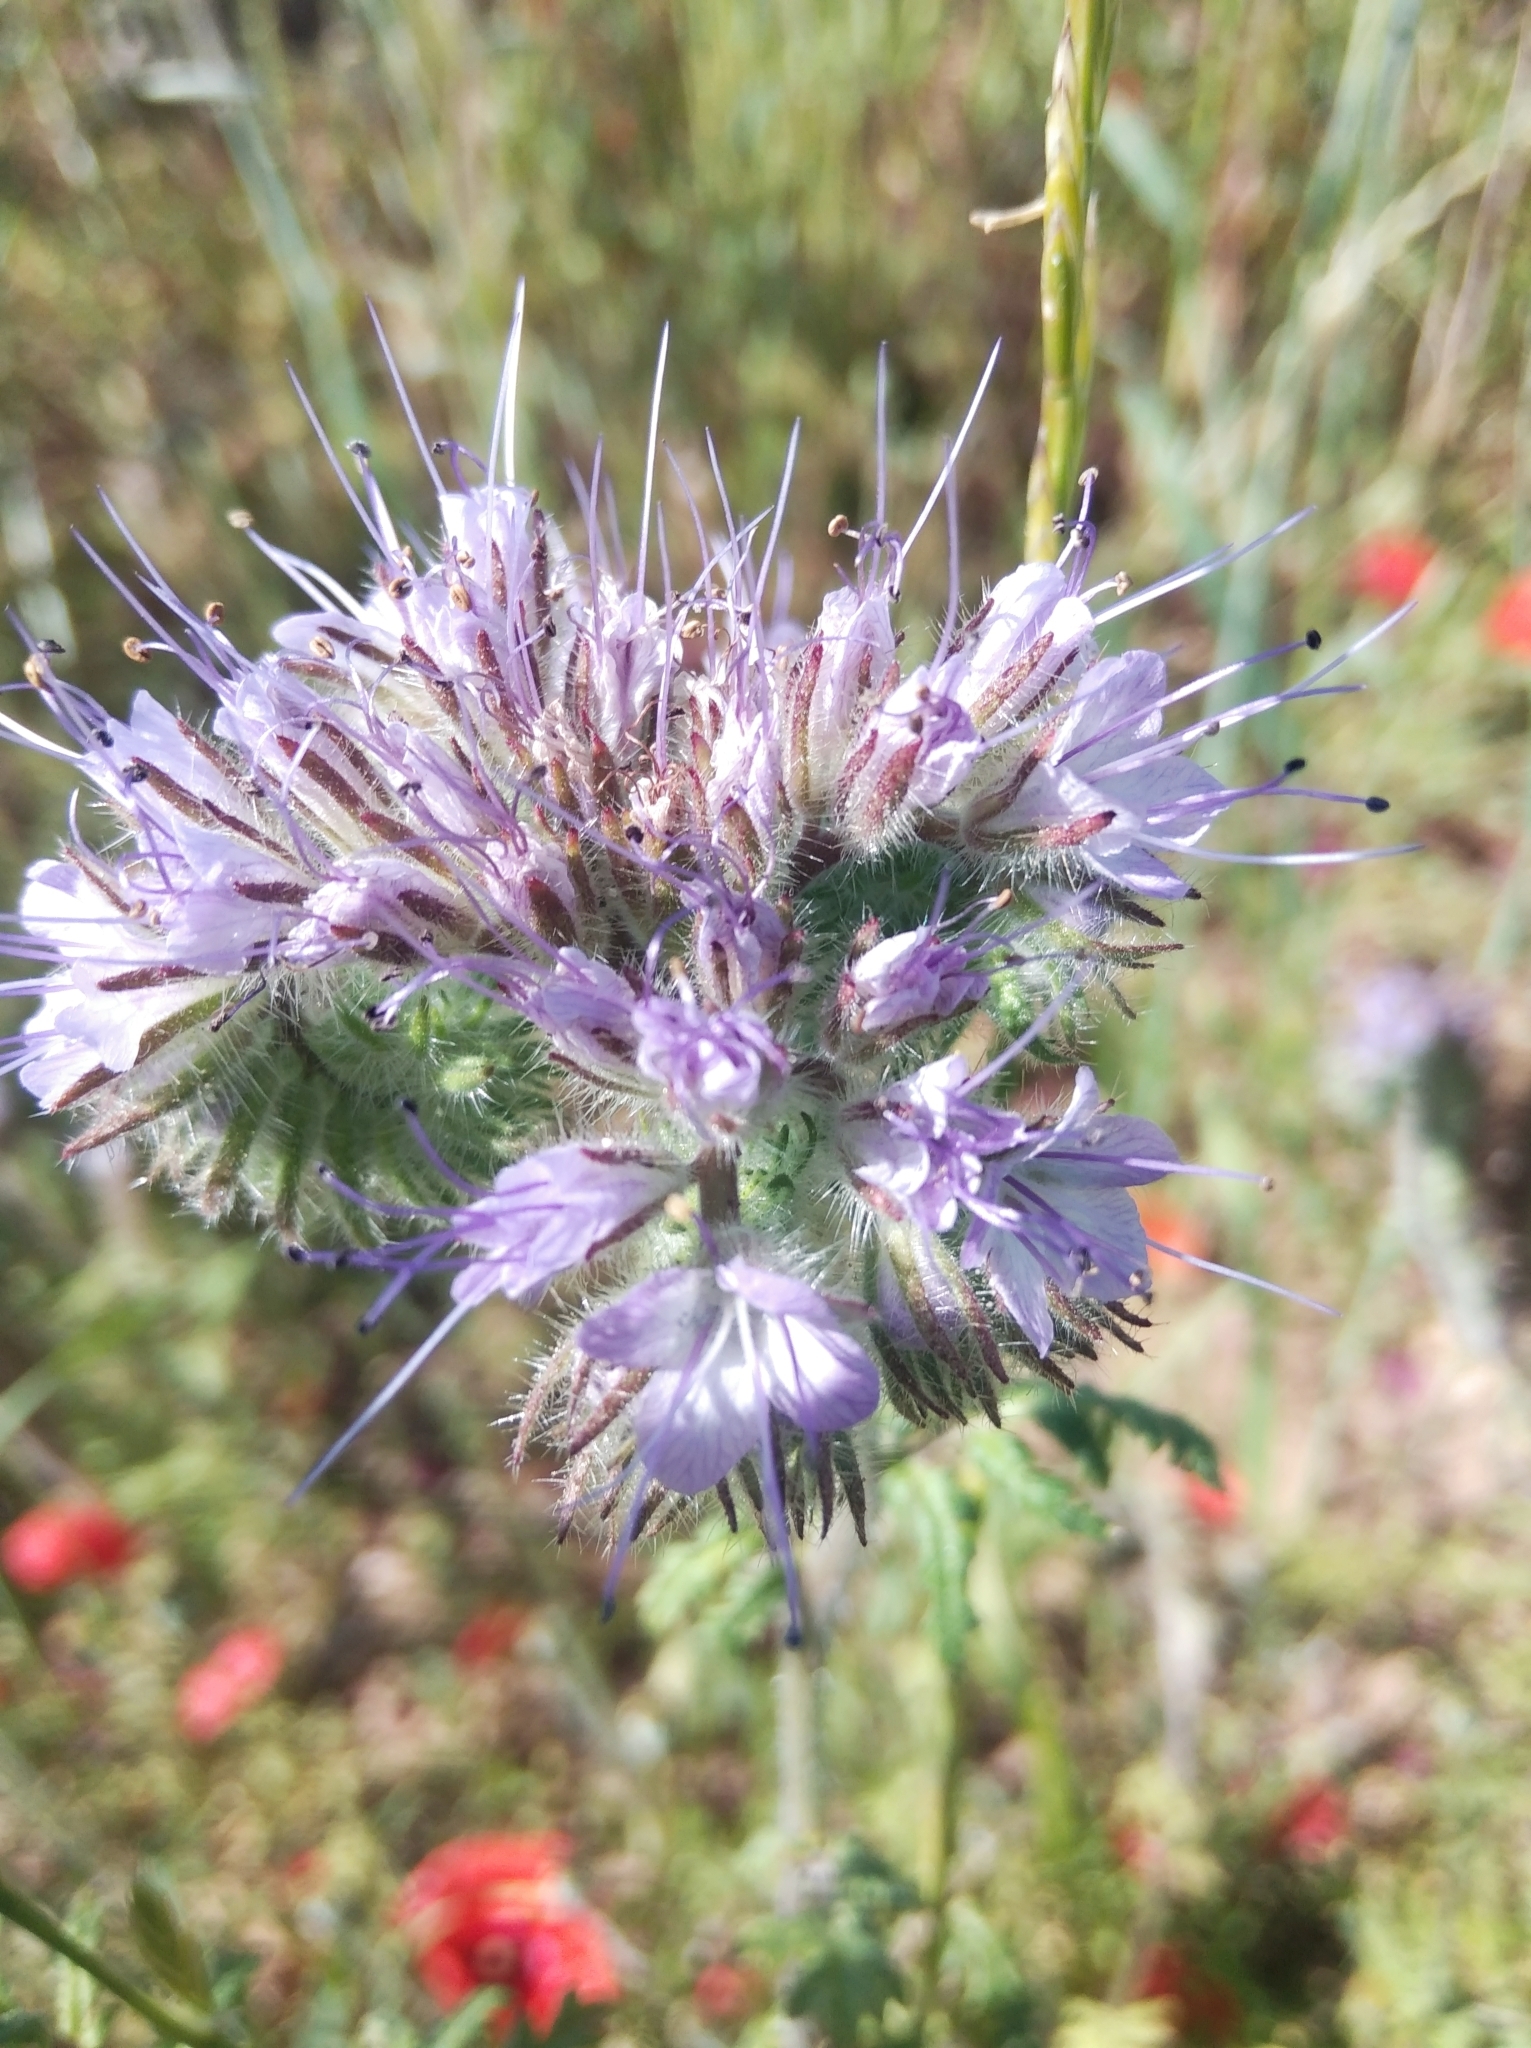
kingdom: Plantae
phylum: Tracheophyta
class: Magnoliopsida
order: Boraginales
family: Hydrophyllaceae
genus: Phacelia
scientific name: Phacelia tanacetifolia
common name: Phacelia
